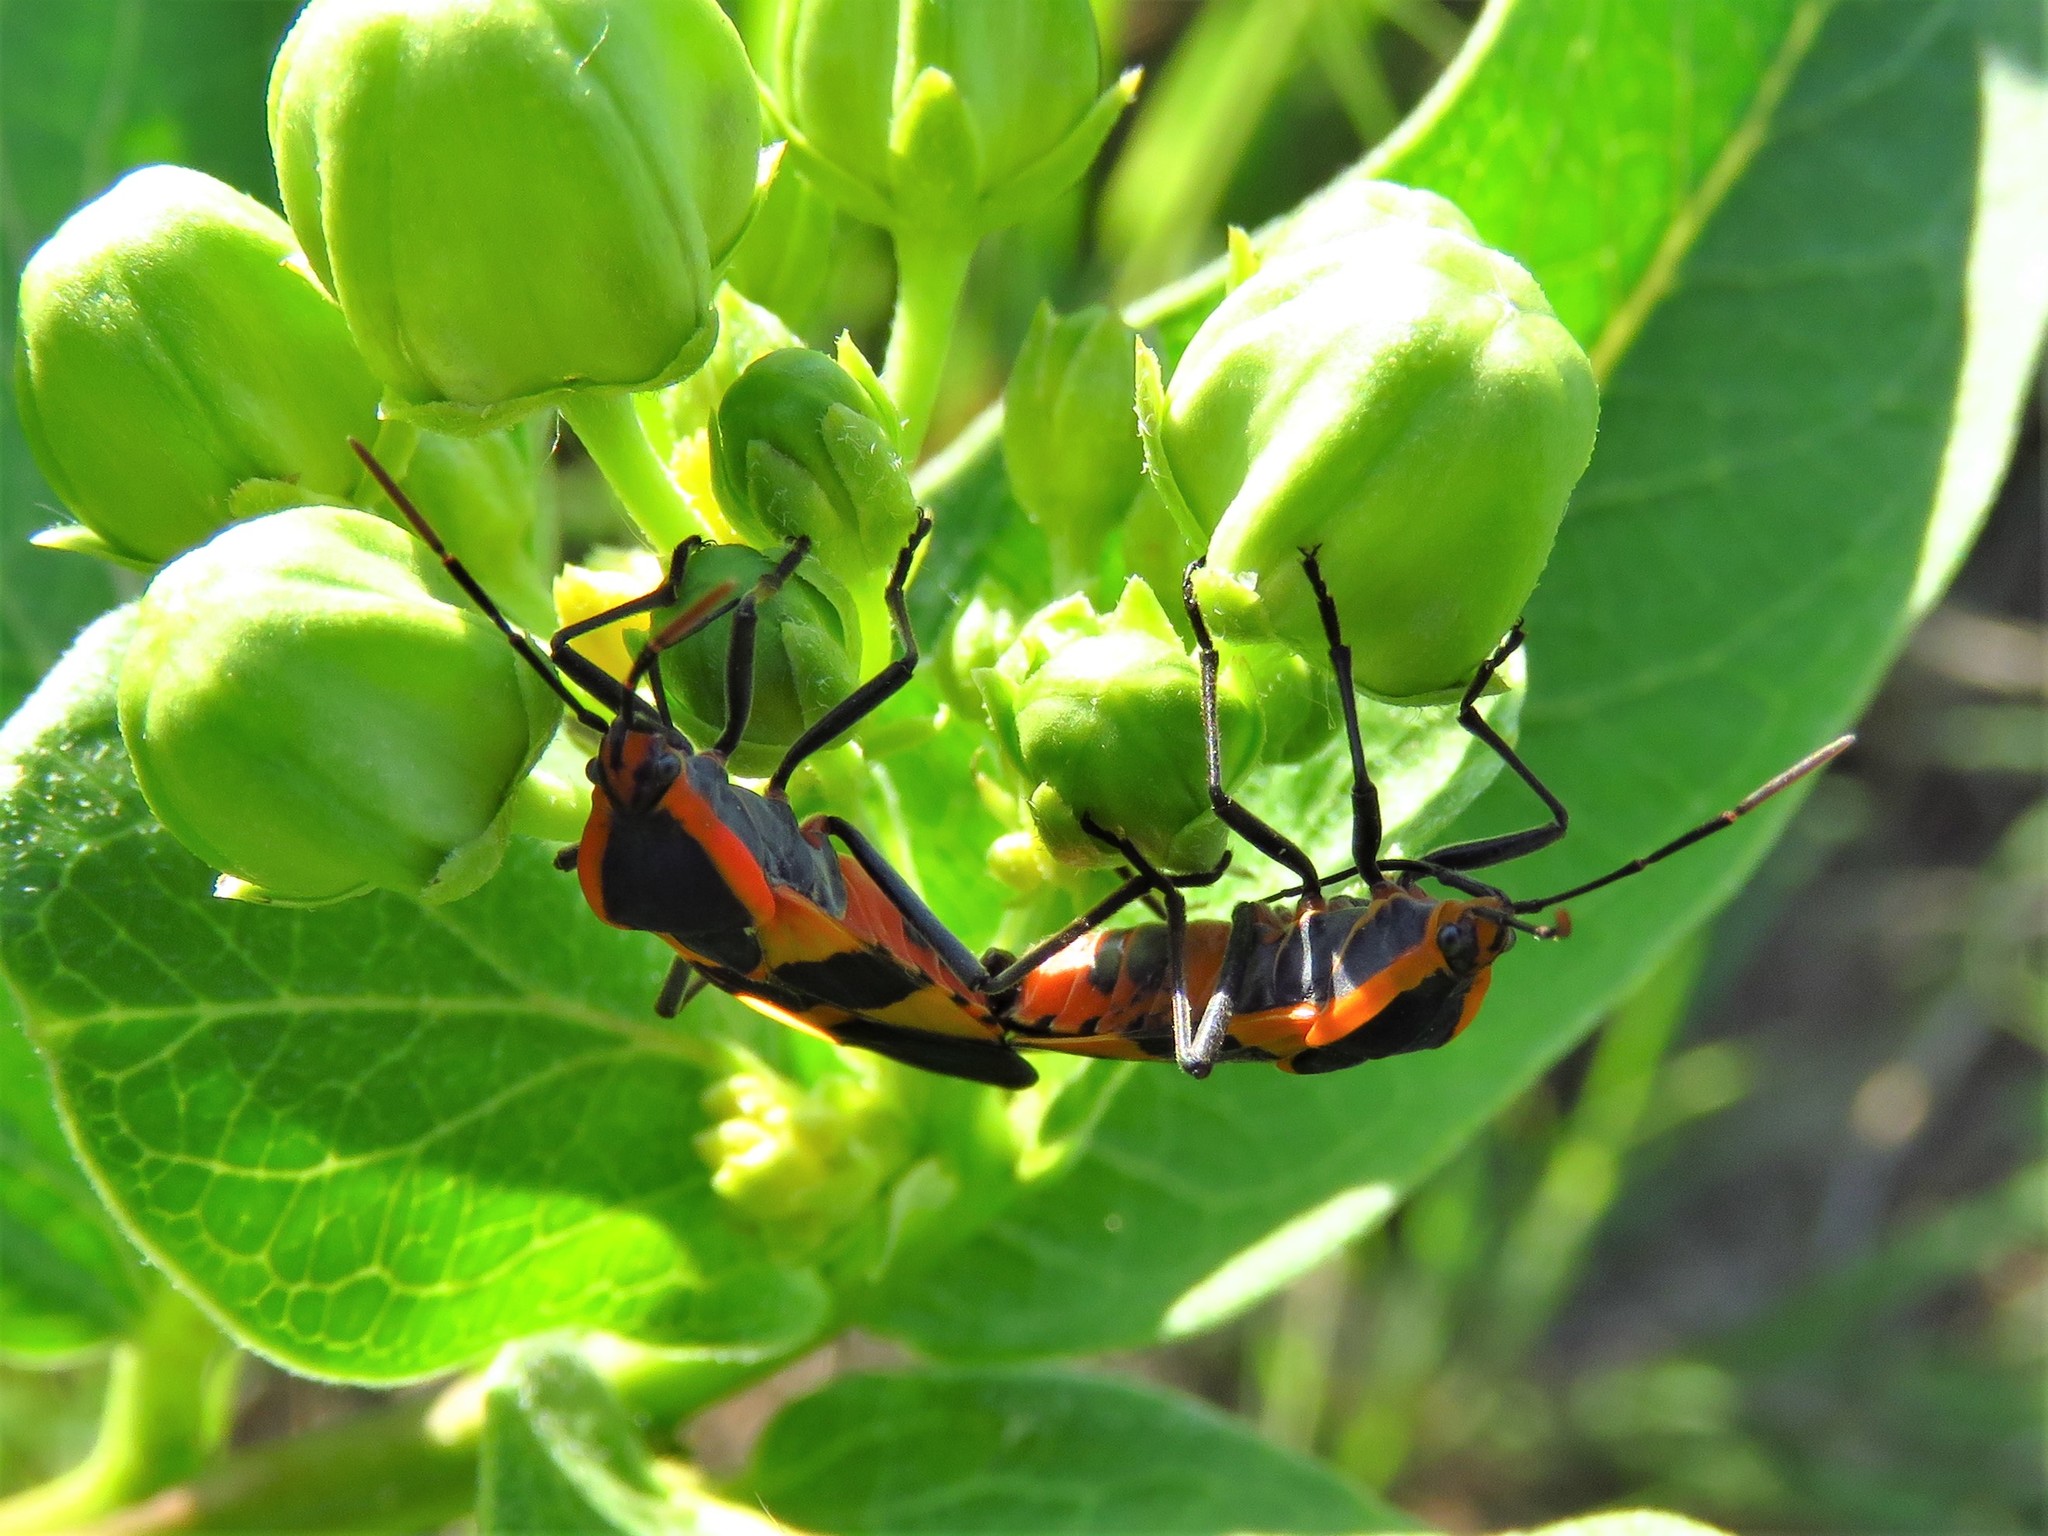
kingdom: Animalia
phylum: Arthropoda
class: Insecta
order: Hemiptera
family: Lygaeidae
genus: Oncopeltus
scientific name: Oncopeltus fasciatus
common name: Large milkweed bug
